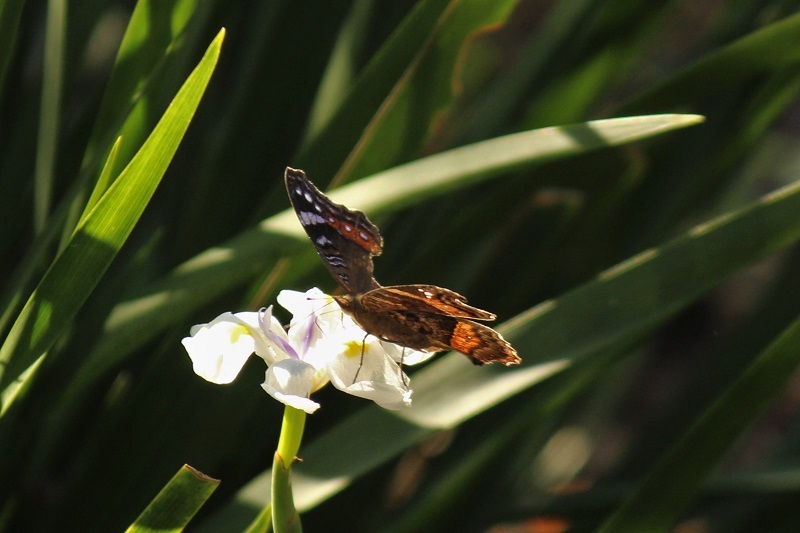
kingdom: Animalia
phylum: Arthropoda
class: Insecta
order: Lepidoptera
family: Nymphalidae
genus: Junonia
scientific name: Junonia archesia
